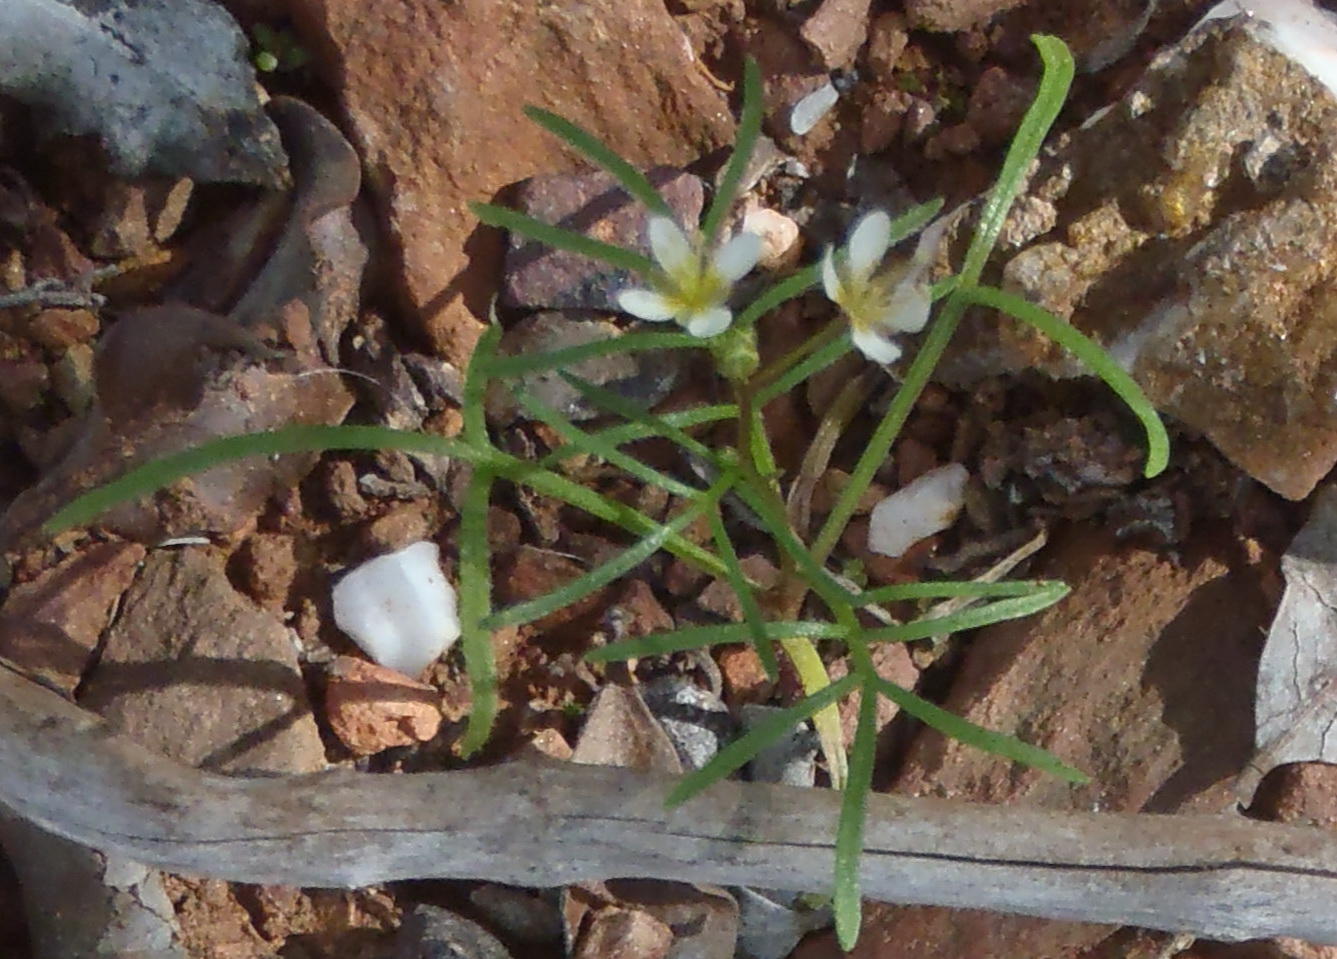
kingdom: Plantae
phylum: Tracheophyta
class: Magnoliopsida
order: Brassicales
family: Brassicaceae
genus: Heliophila
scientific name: Heliophila pendula
